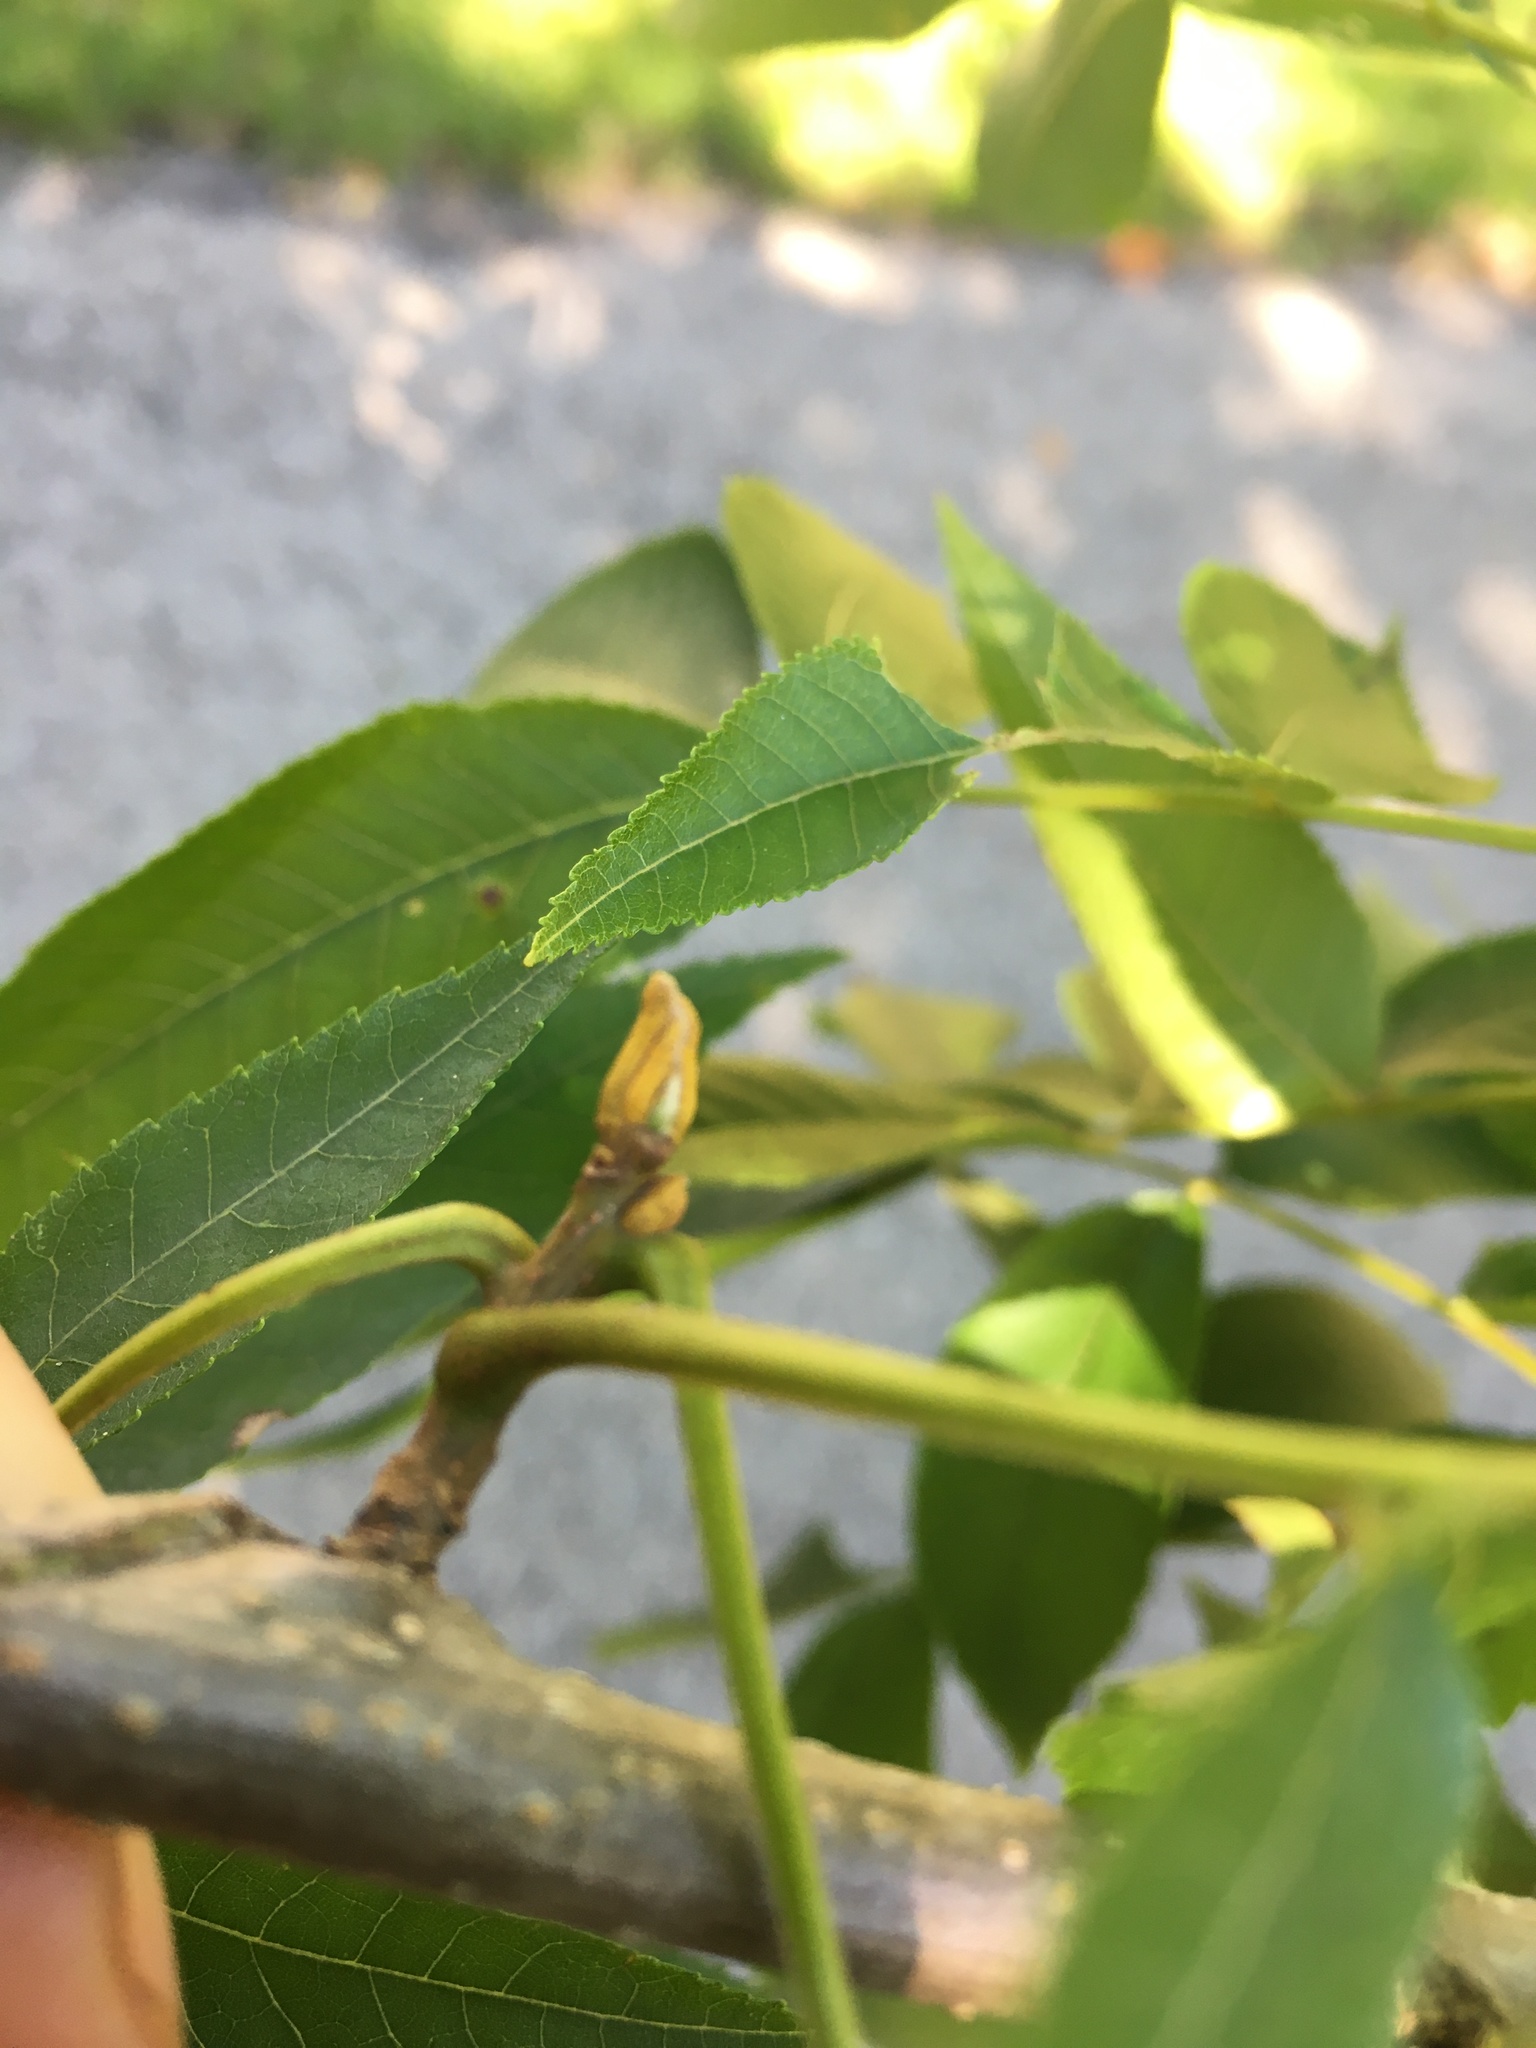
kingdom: Plantae
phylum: Tracheophyta
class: Magnoliopsida
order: Fagales
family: Juglandaceae
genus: Carya
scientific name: Carya cordiformis
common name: Bitternut hickory
